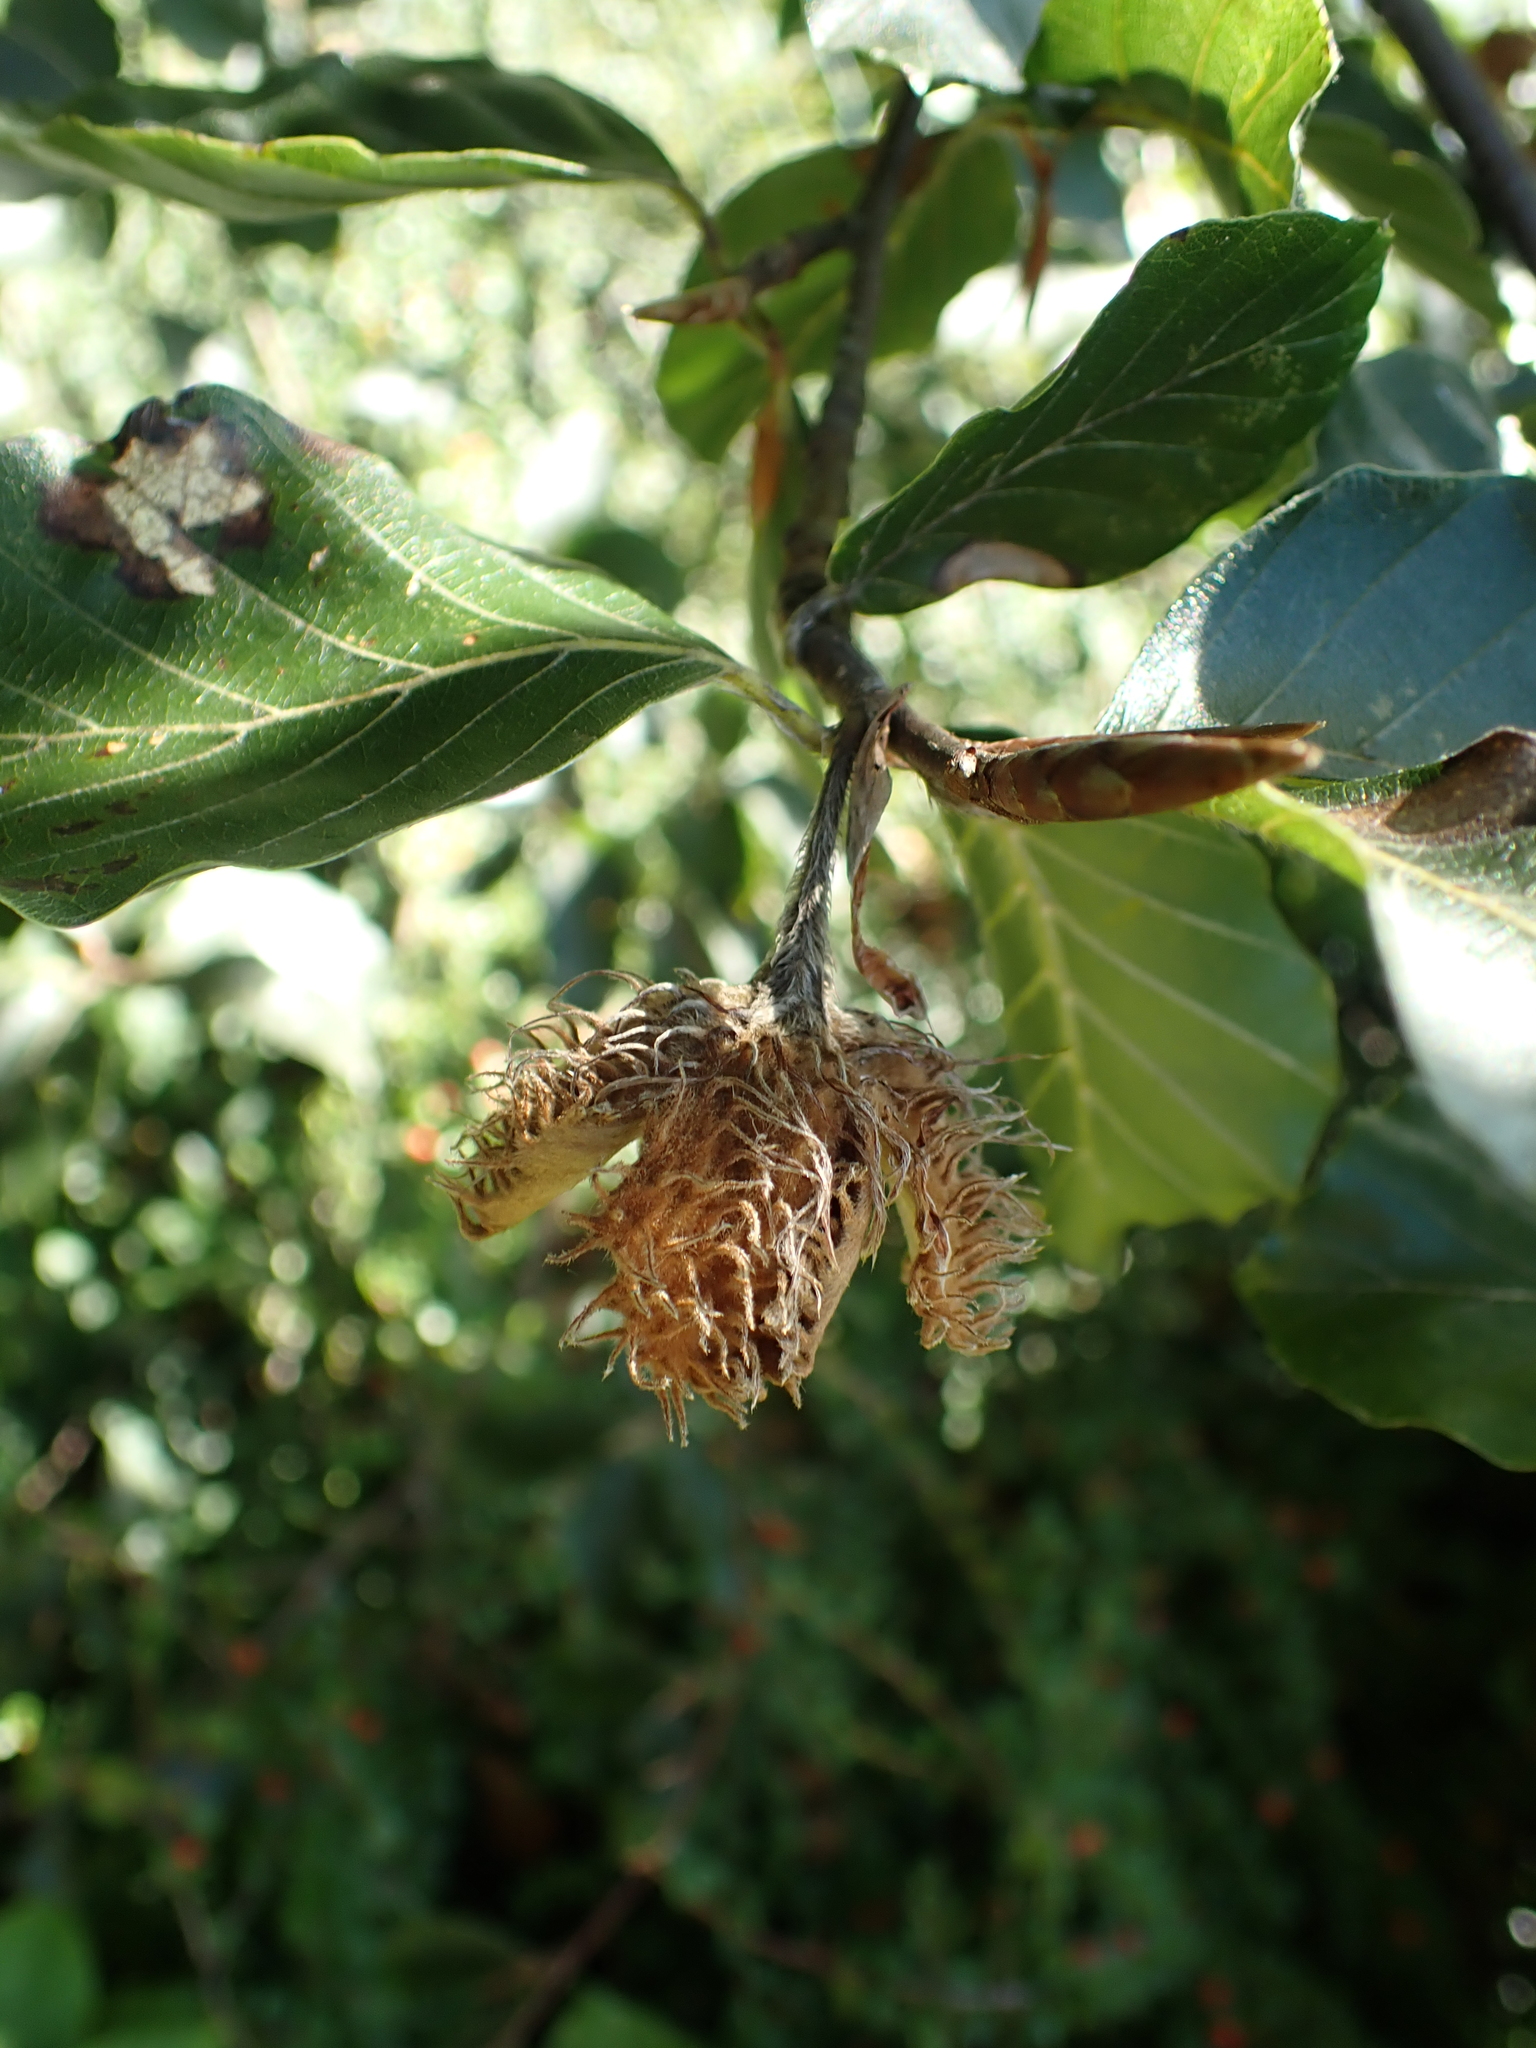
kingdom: Plantae
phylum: Tracheophyta
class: Magnoliopsida
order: Fagales
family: Fagaceae
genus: Fagus
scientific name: Fagus sylvatica
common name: Beech
